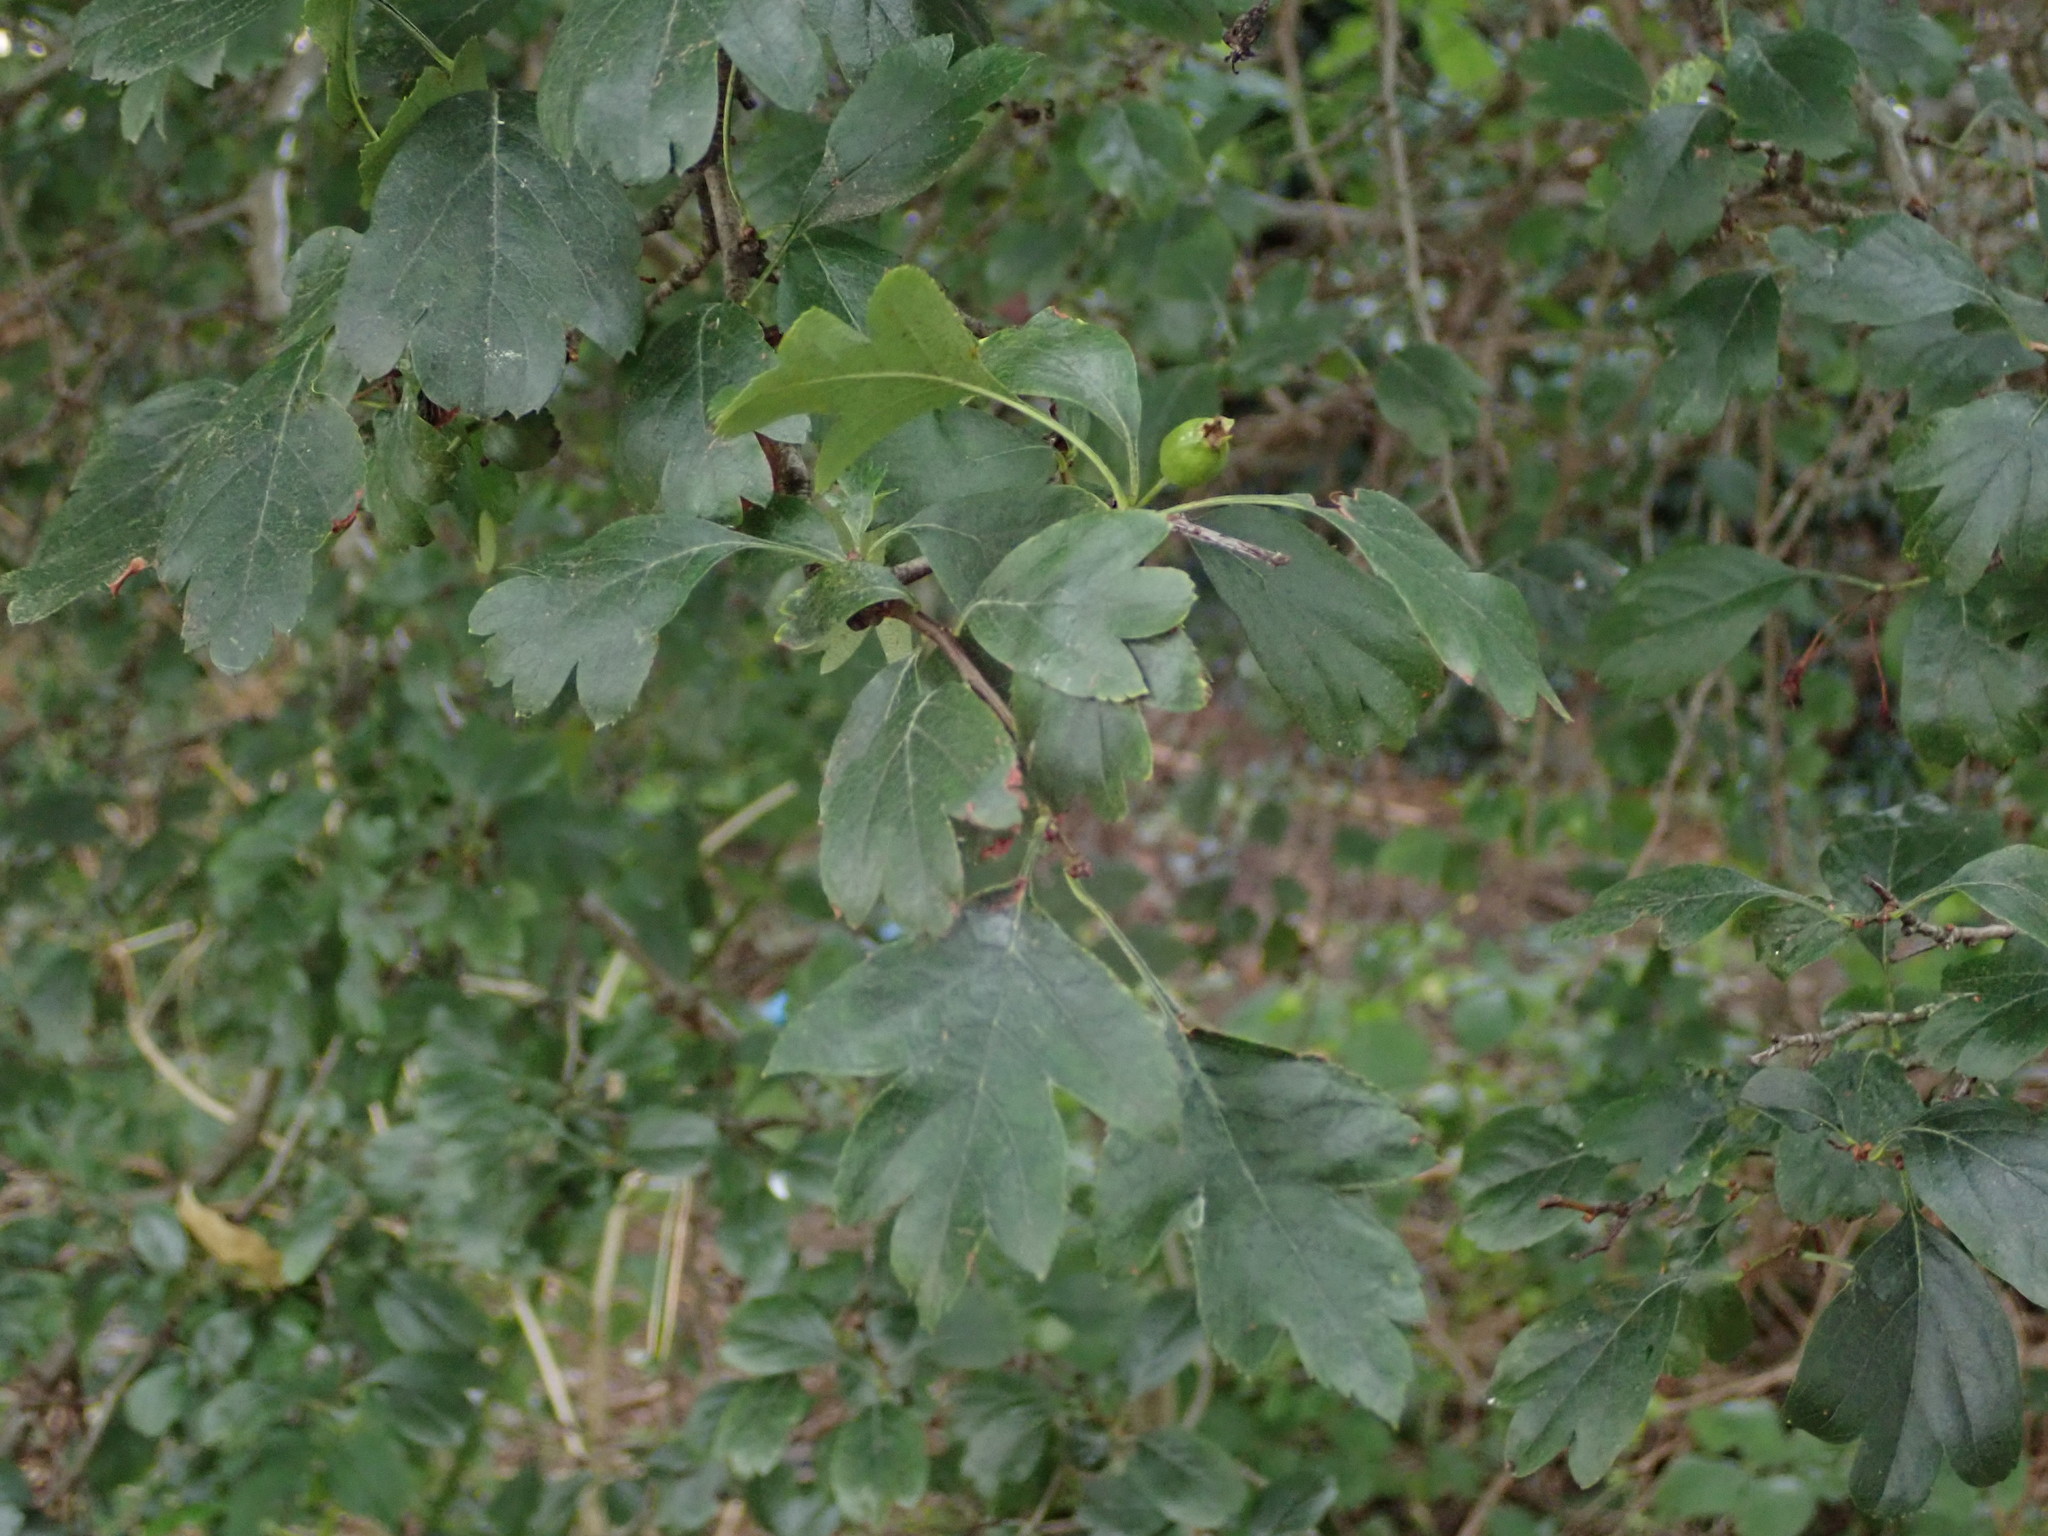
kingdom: Plantae
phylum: Tracheophyta
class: Magnoliopsida
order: Rosales
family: Rosaceae
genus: Crataegus
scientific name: Crataegus media
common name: Intermediate hawthorn
